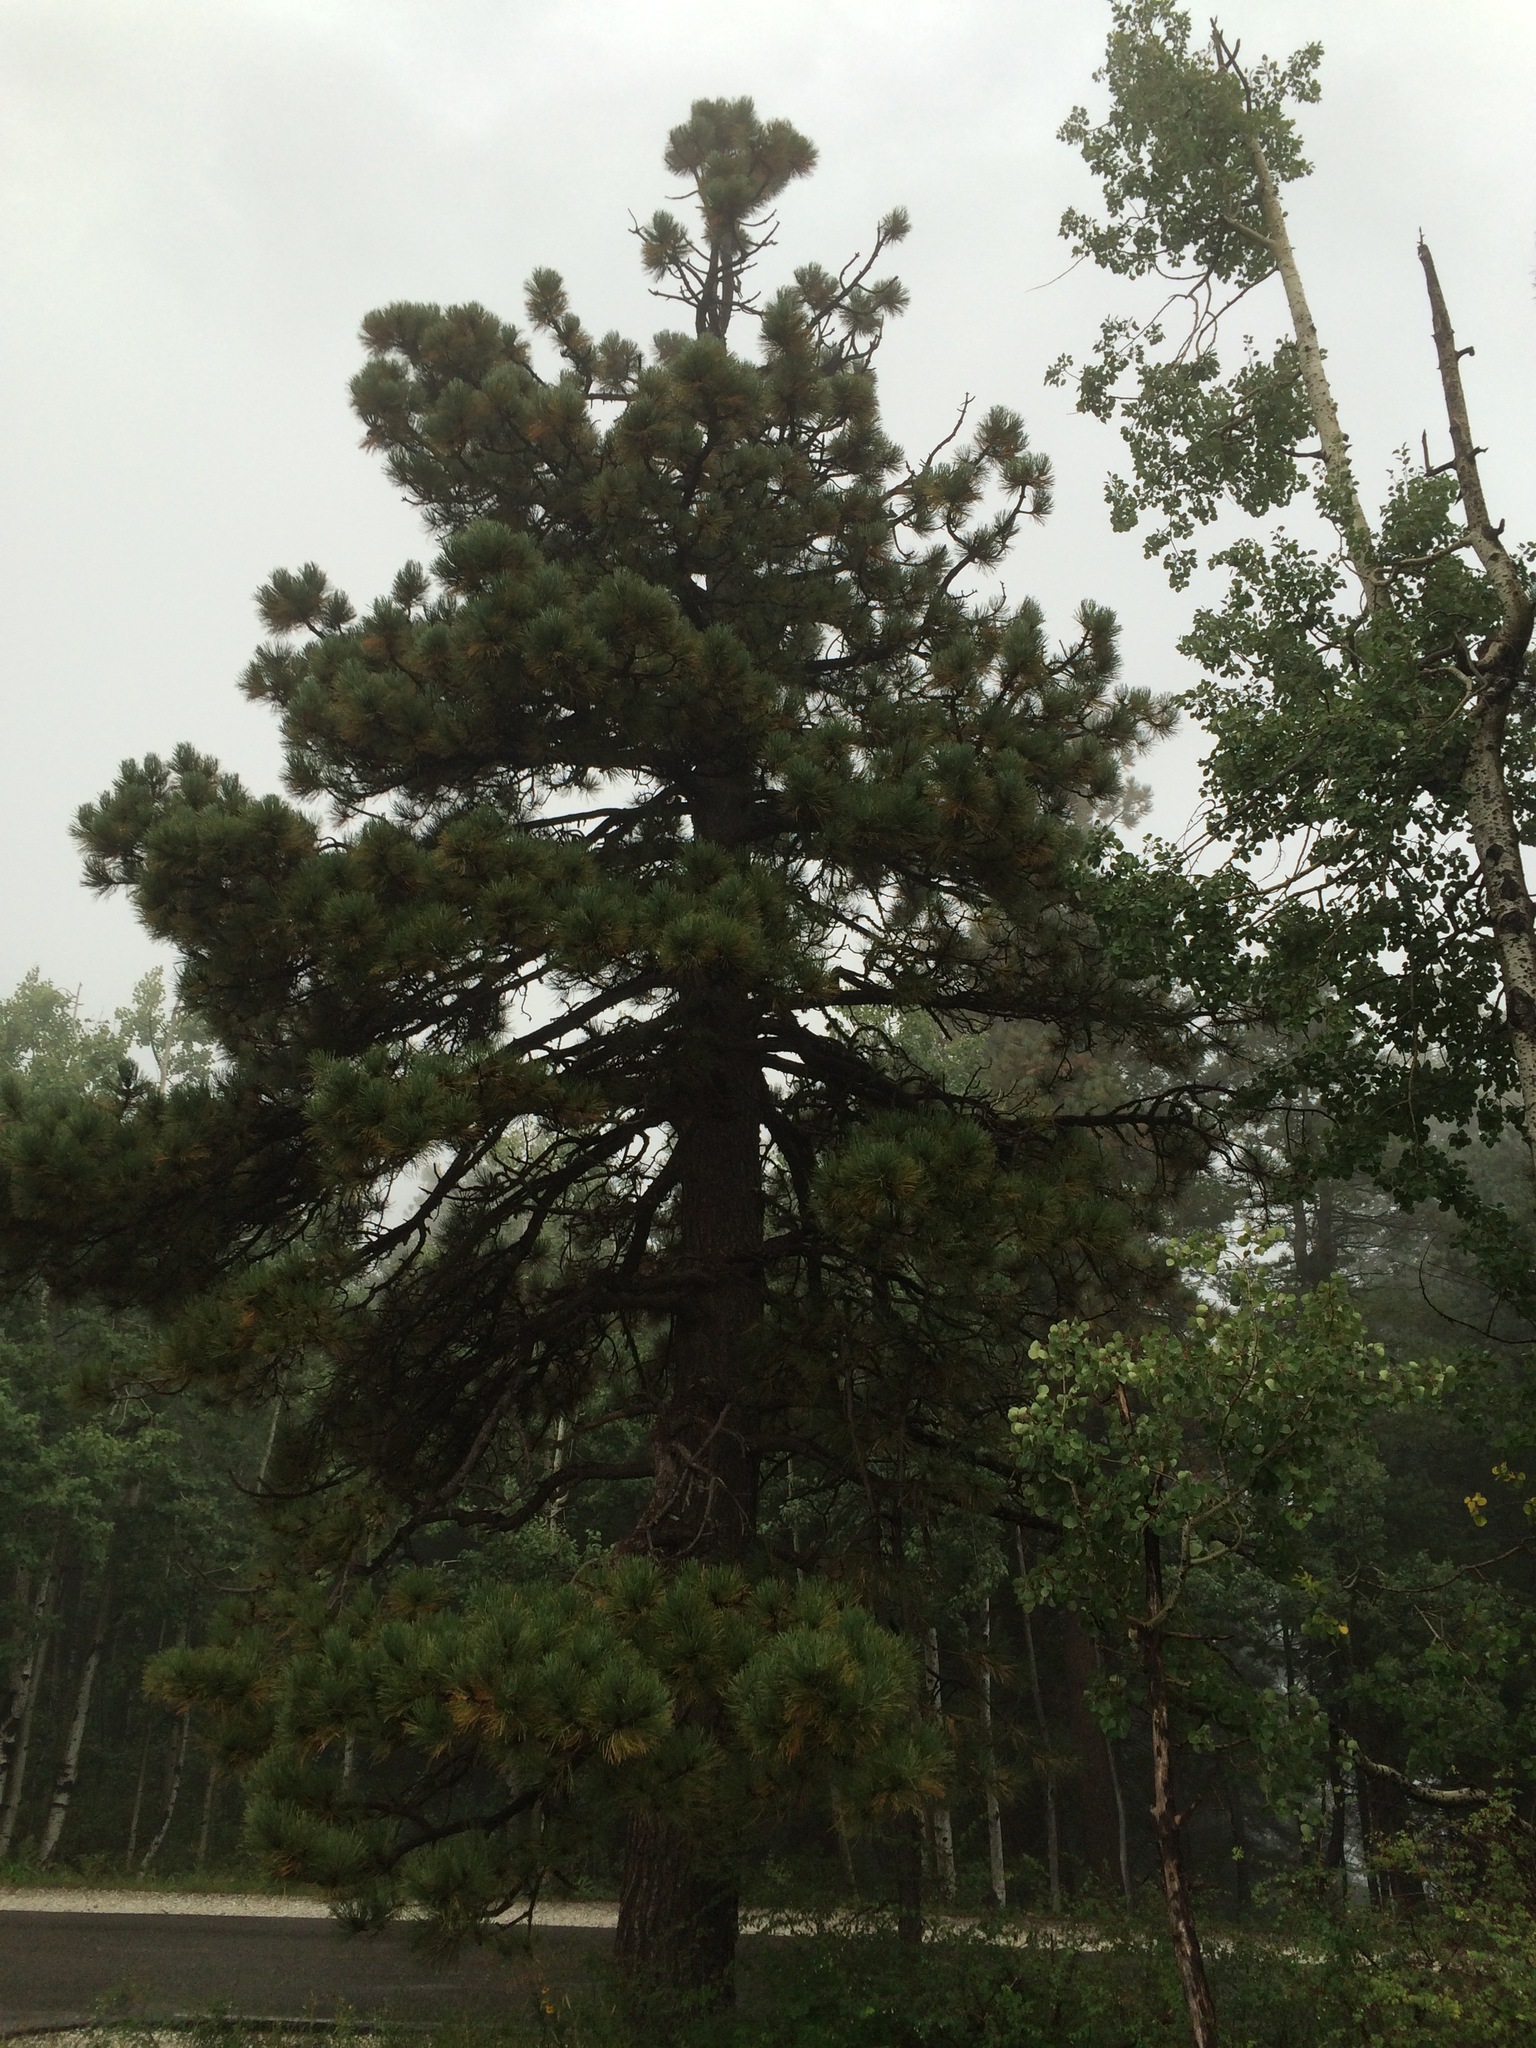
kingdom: Plantae
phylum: Tracheophyta
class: Pinopsida
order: Pinales
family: Pinaceae
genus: Pinus
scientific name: Pinus ponderosa
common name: Western yellow-pine
